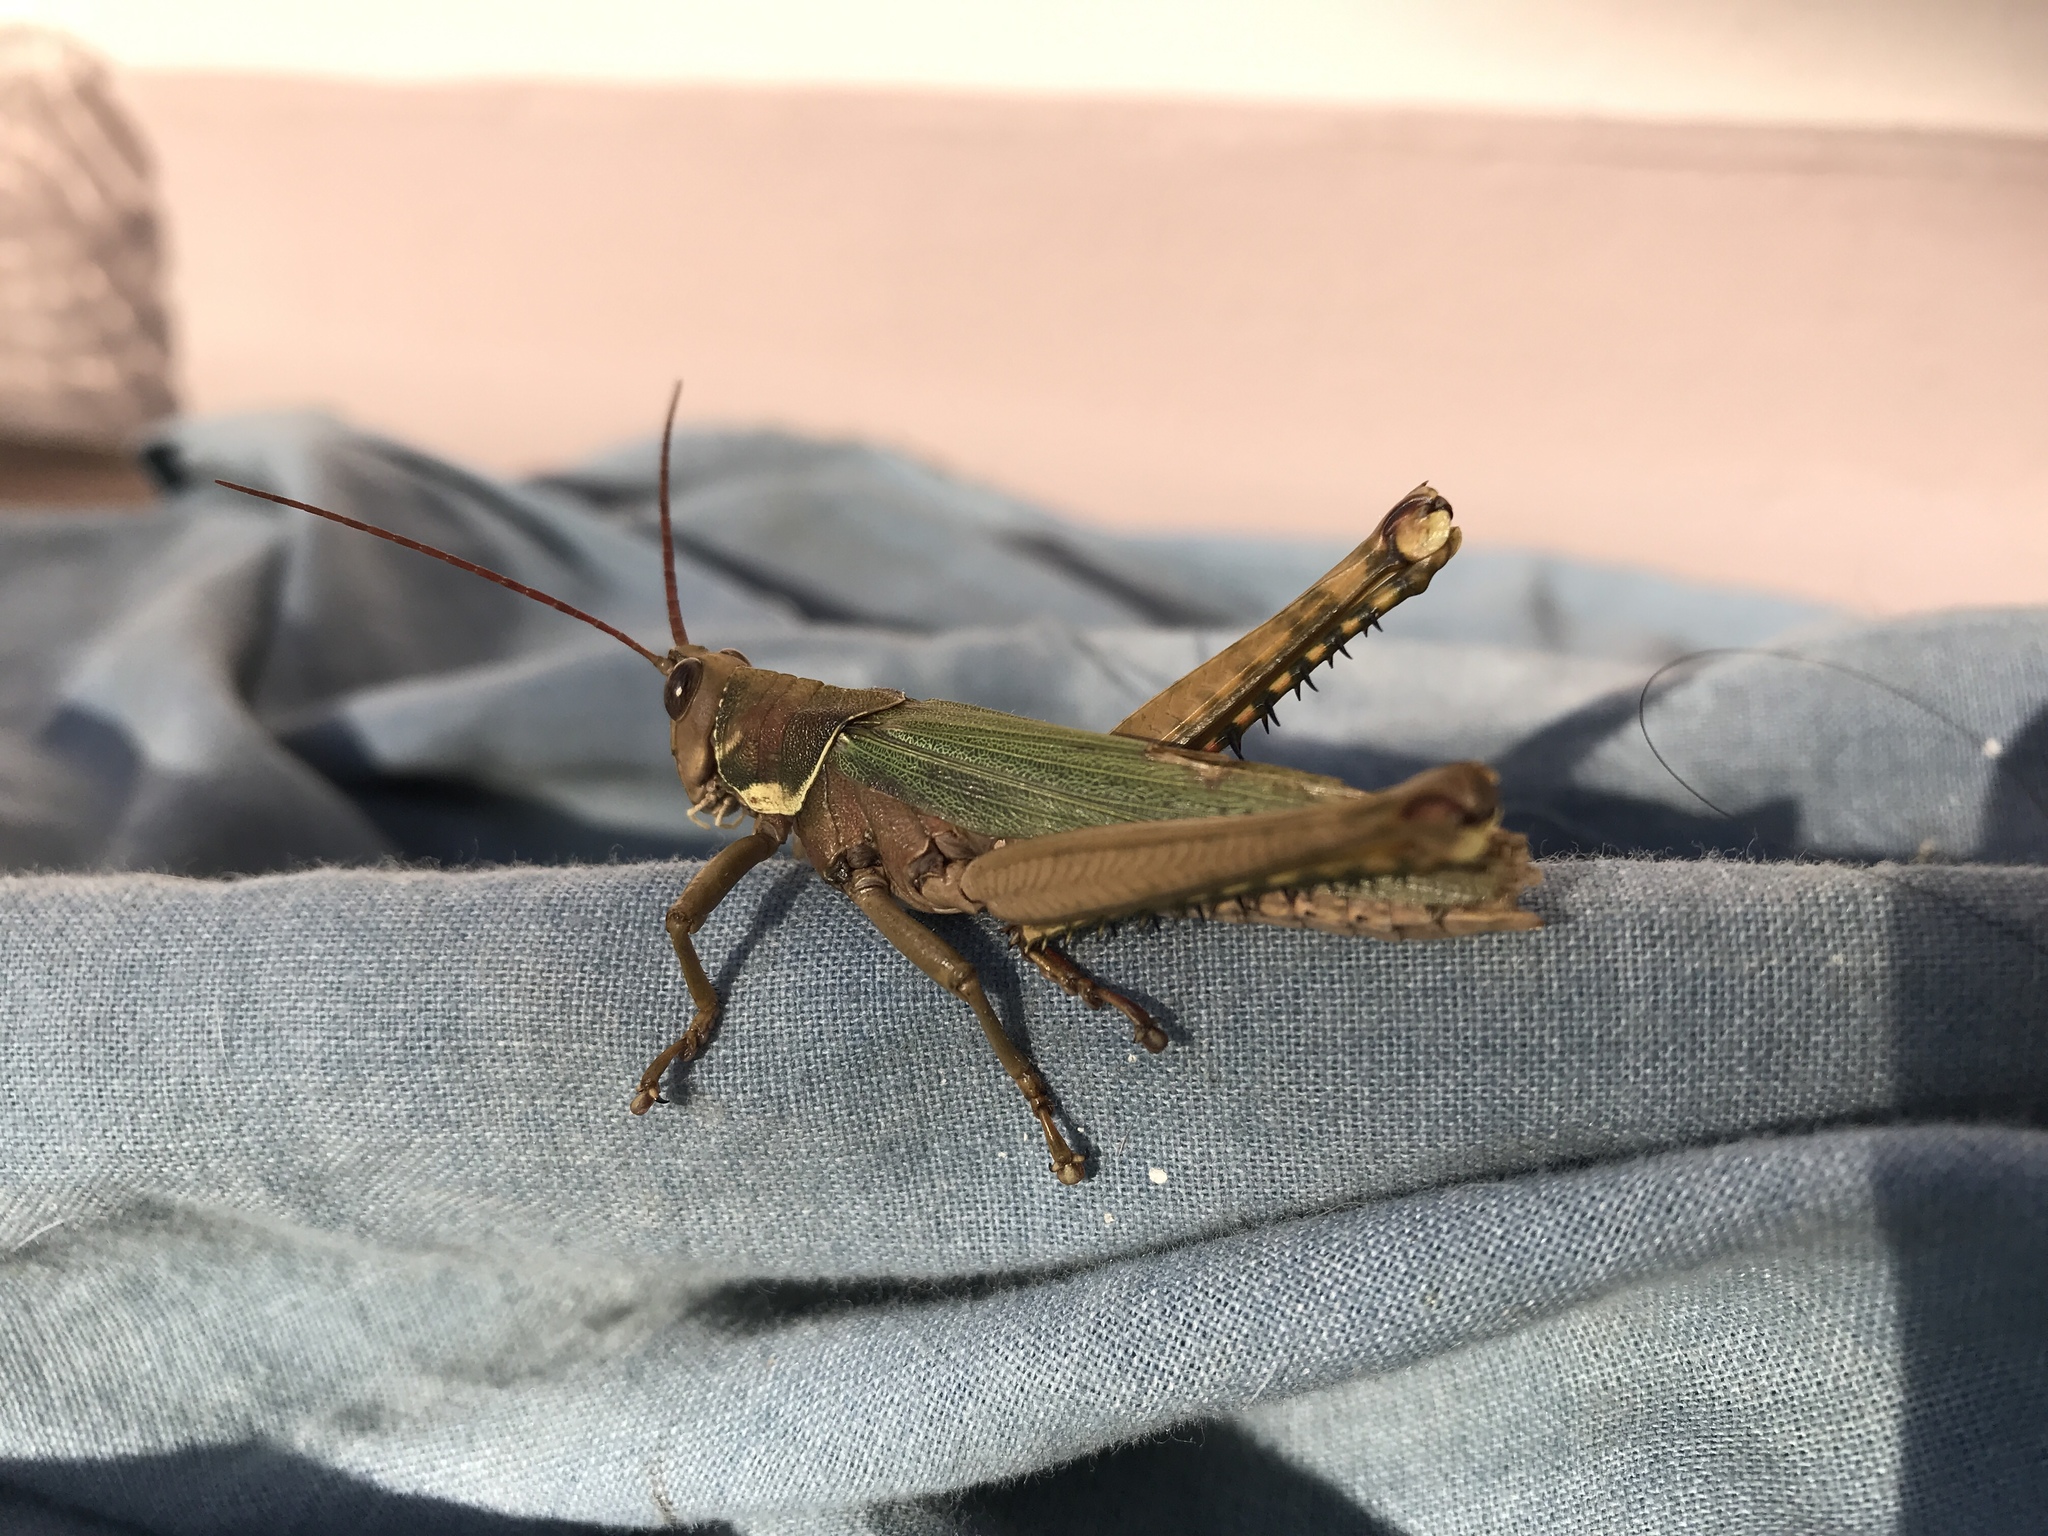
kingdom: Animalia
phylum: Arthropoda
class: Insecta
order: Orthoptera
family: Romaleidae
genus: Coryacris
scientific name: Coryacris angustipennis
